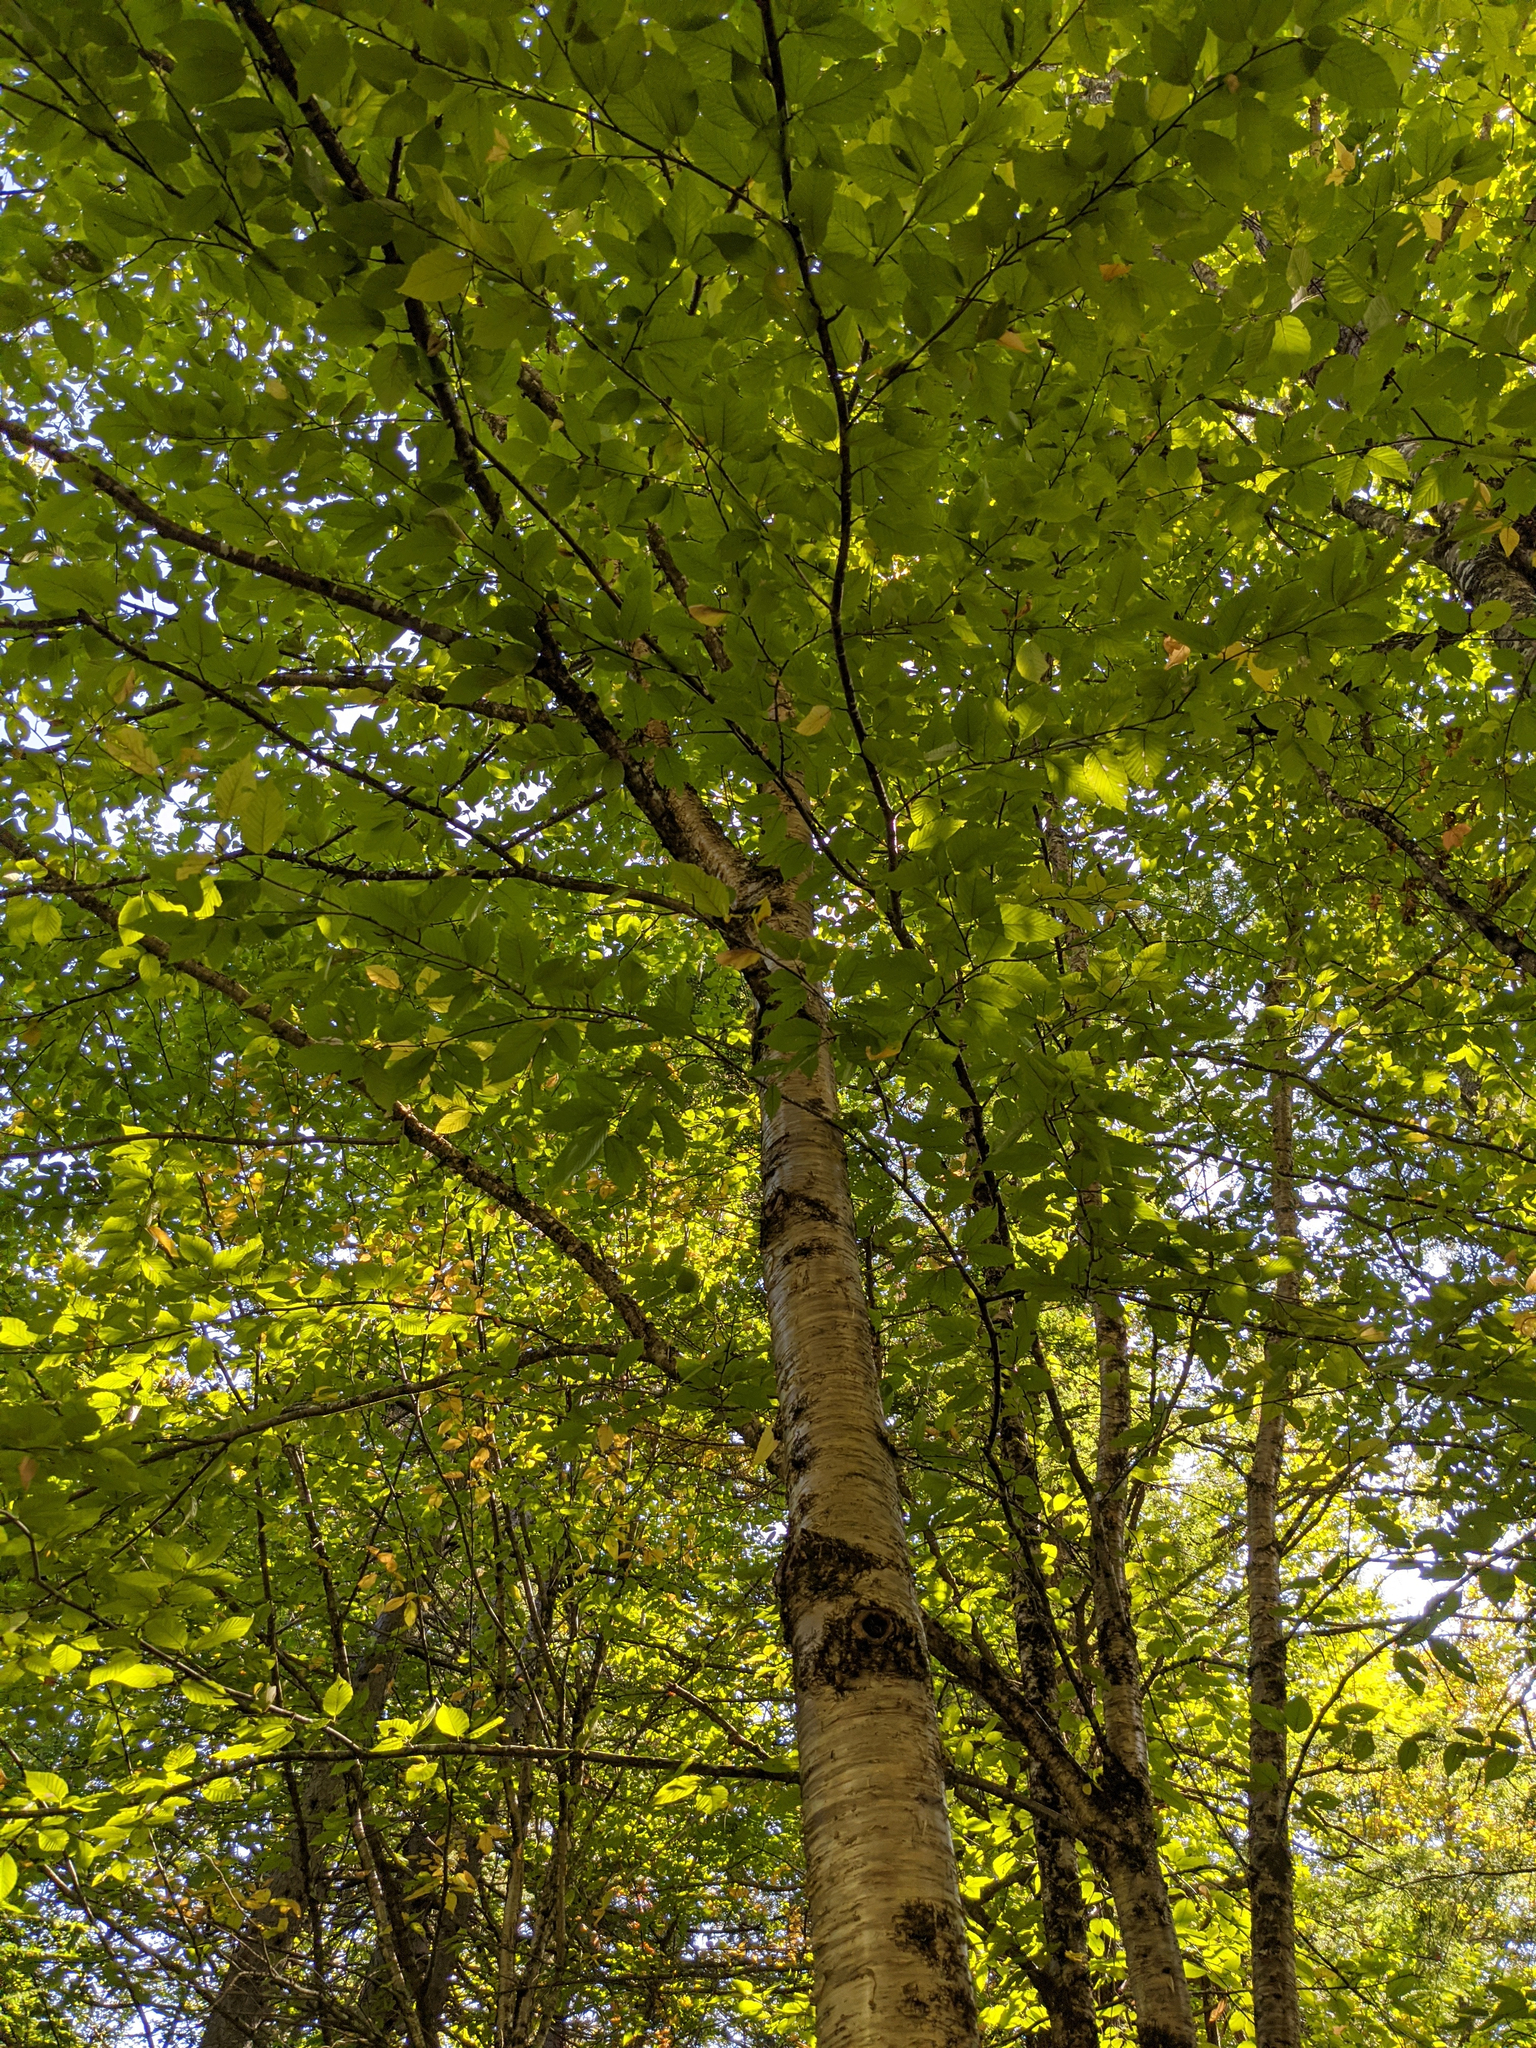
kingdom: Plantae
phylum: Tracheophyta
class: Magnoliopsida
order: Fagales
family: Betulaceae
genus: Betula
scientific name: Betula alleghaniensis
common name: Yellow birch
